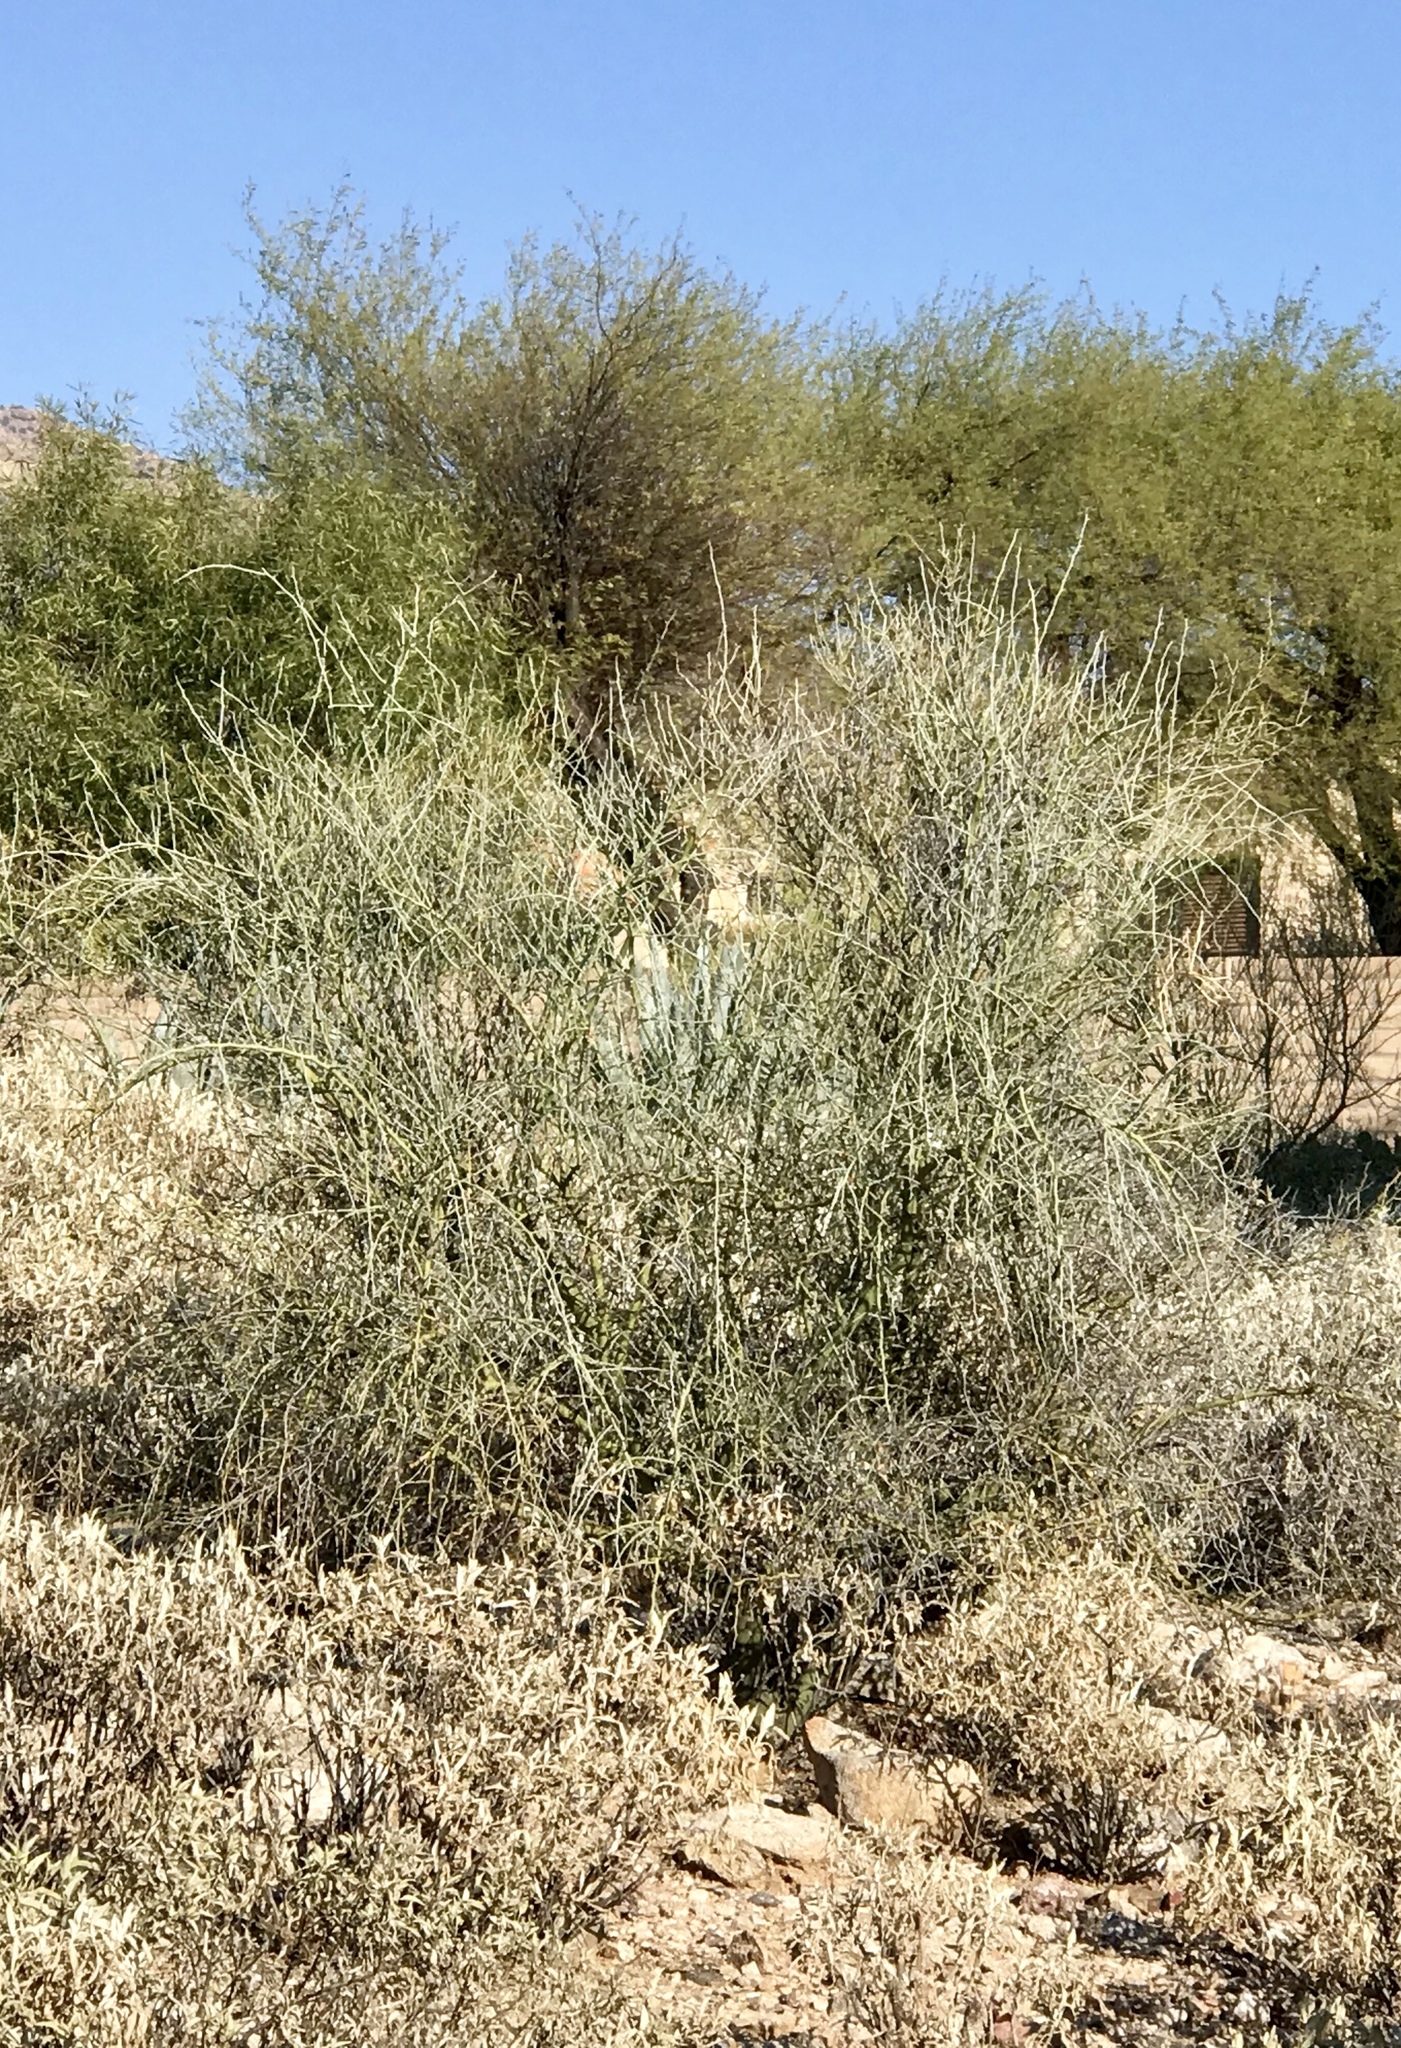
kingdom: Plantae
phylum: Tracheophyta
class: Magnoliopsida
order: Fabales
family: Fabaceae
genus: Parkinsonia
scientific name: Parkinsonia florida
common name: Blue paloverde
